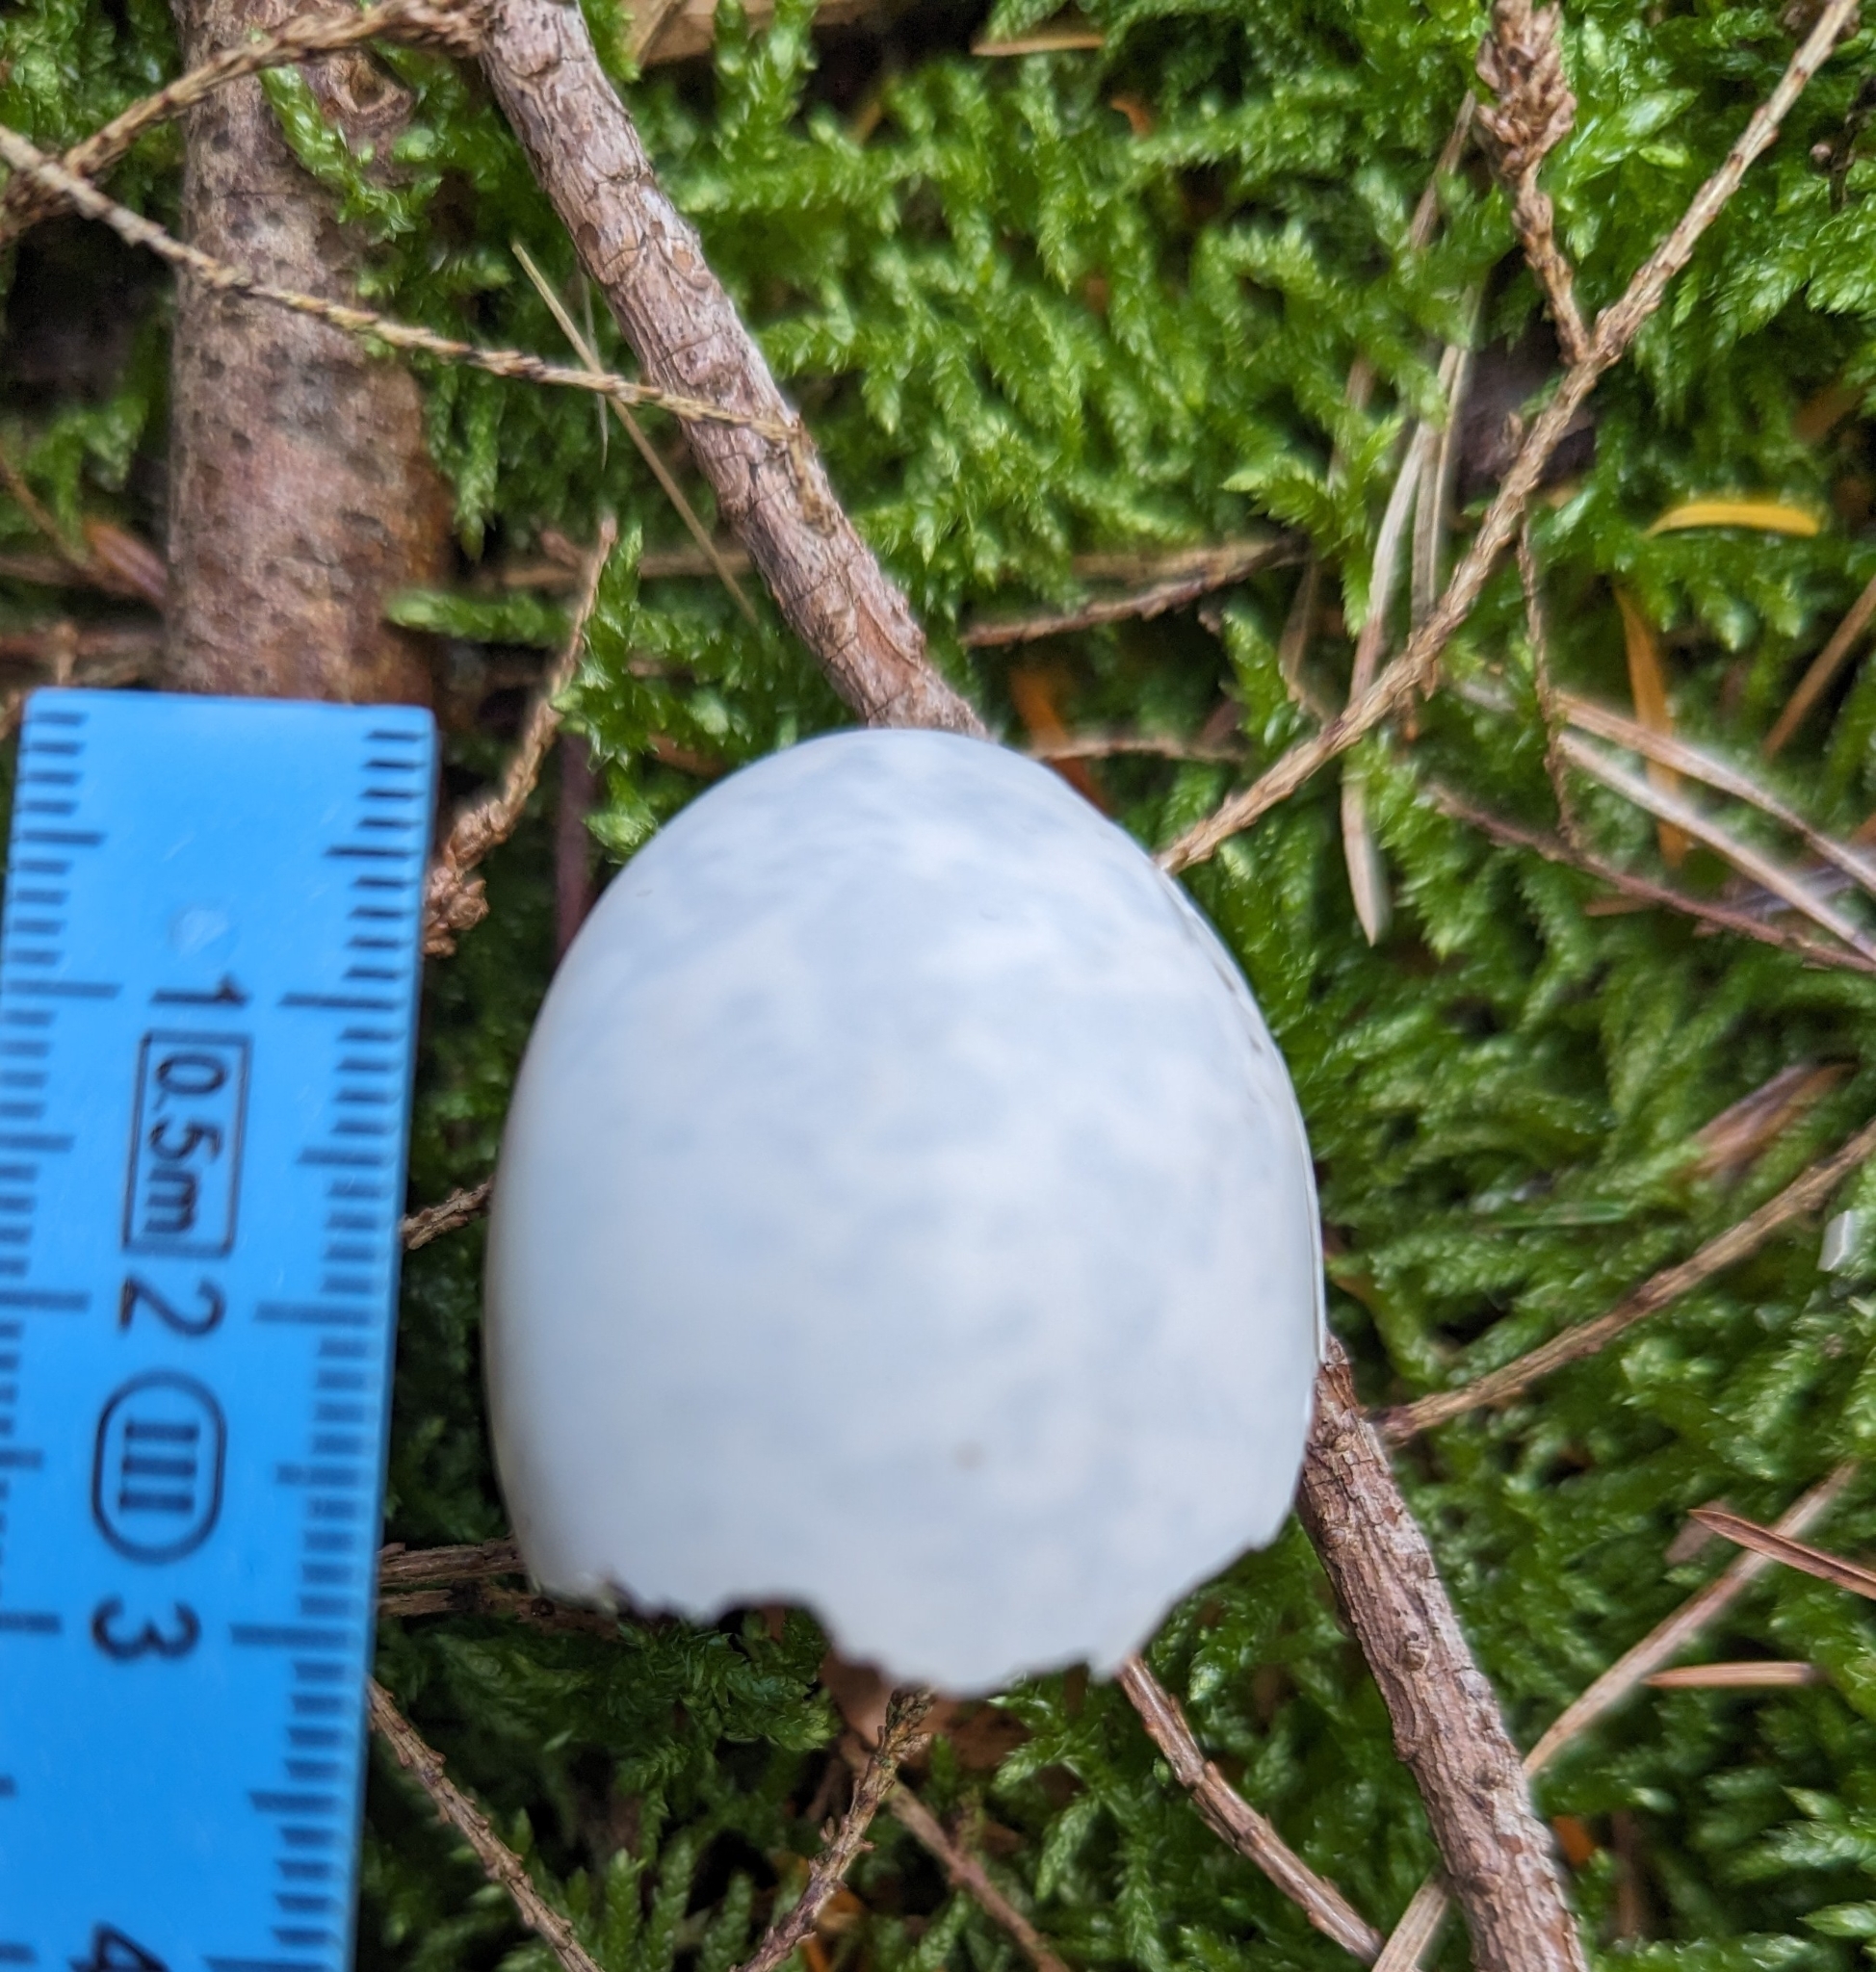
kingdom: Animalia
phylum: Chordata
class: Aves
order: Columbiformes
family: Columbidae
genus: Columba
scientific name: Columba palumbus
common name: Common wood pigeon
